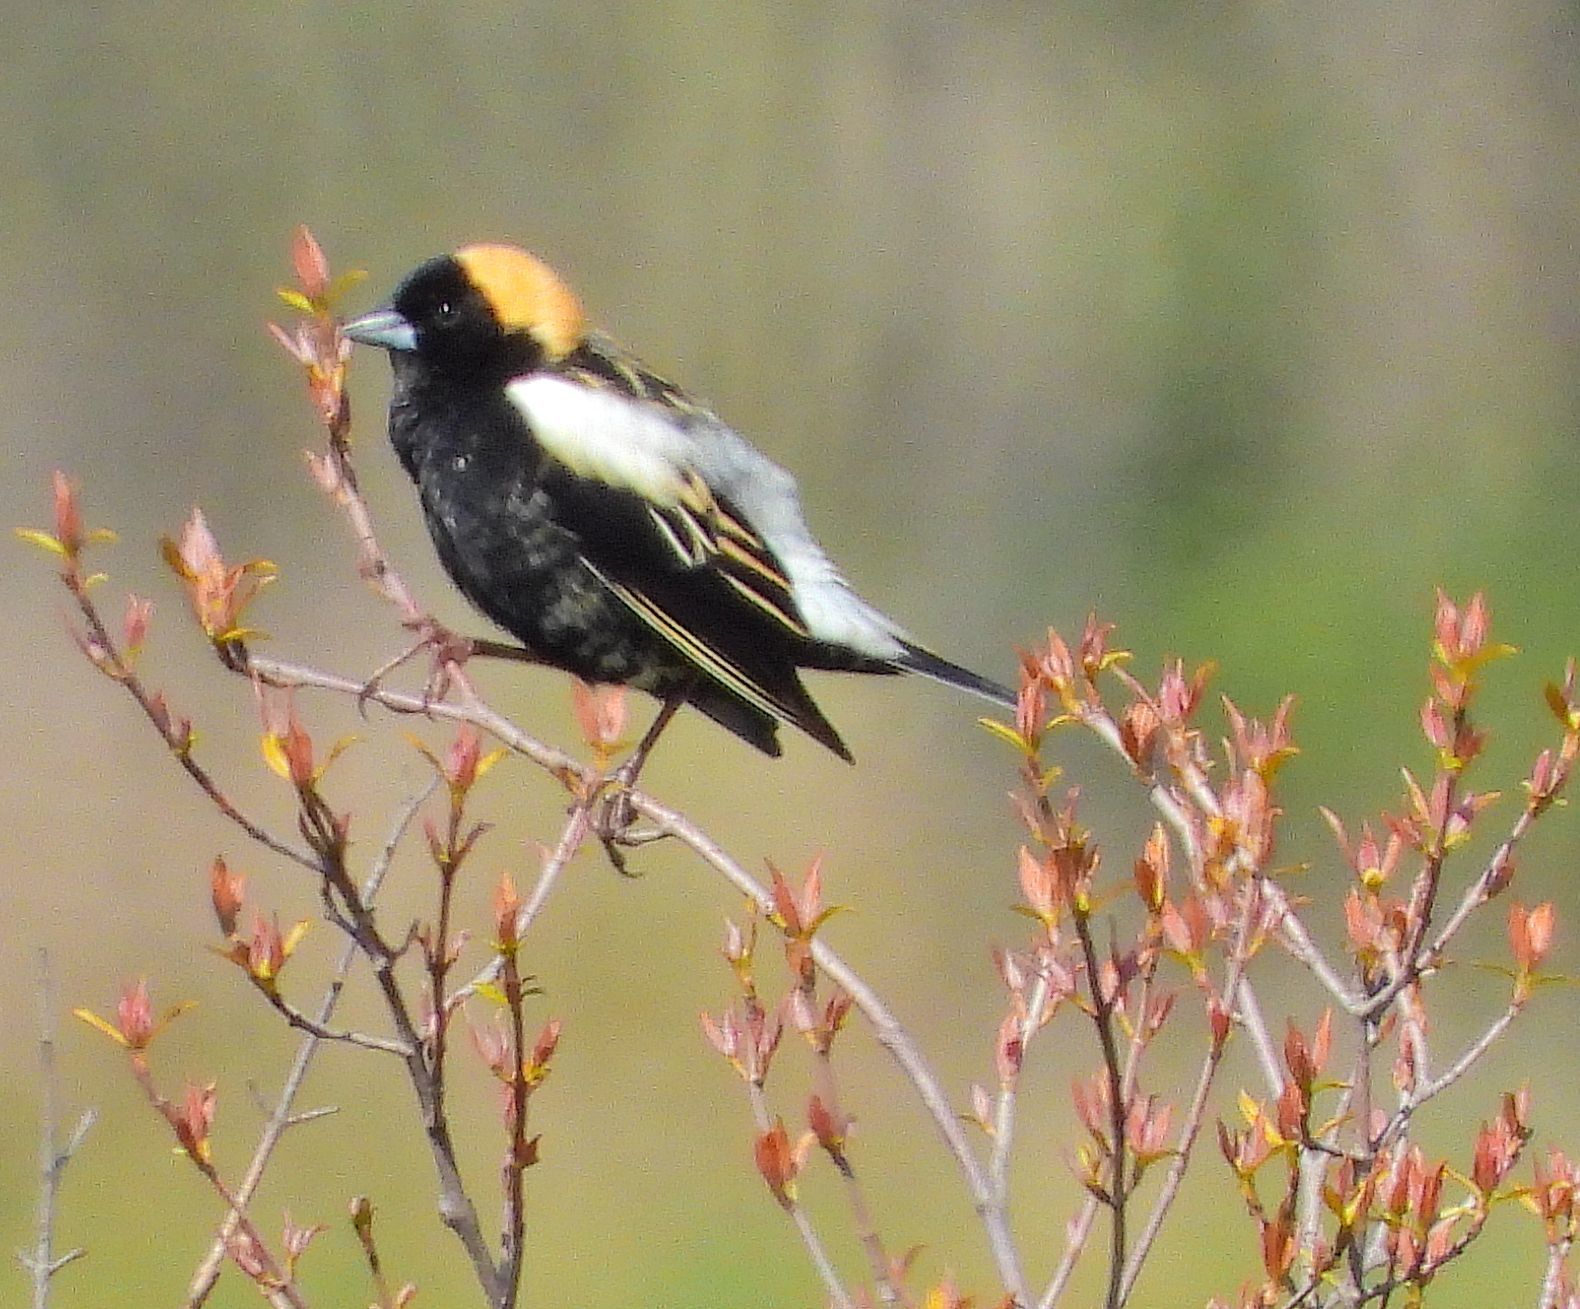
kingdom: Animalia
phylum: Chordata
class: Aves
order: Passeriformes
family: Icteridae
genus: Dolichonyx
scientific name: Dolichonyx oryzivorus
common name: Bobolink
